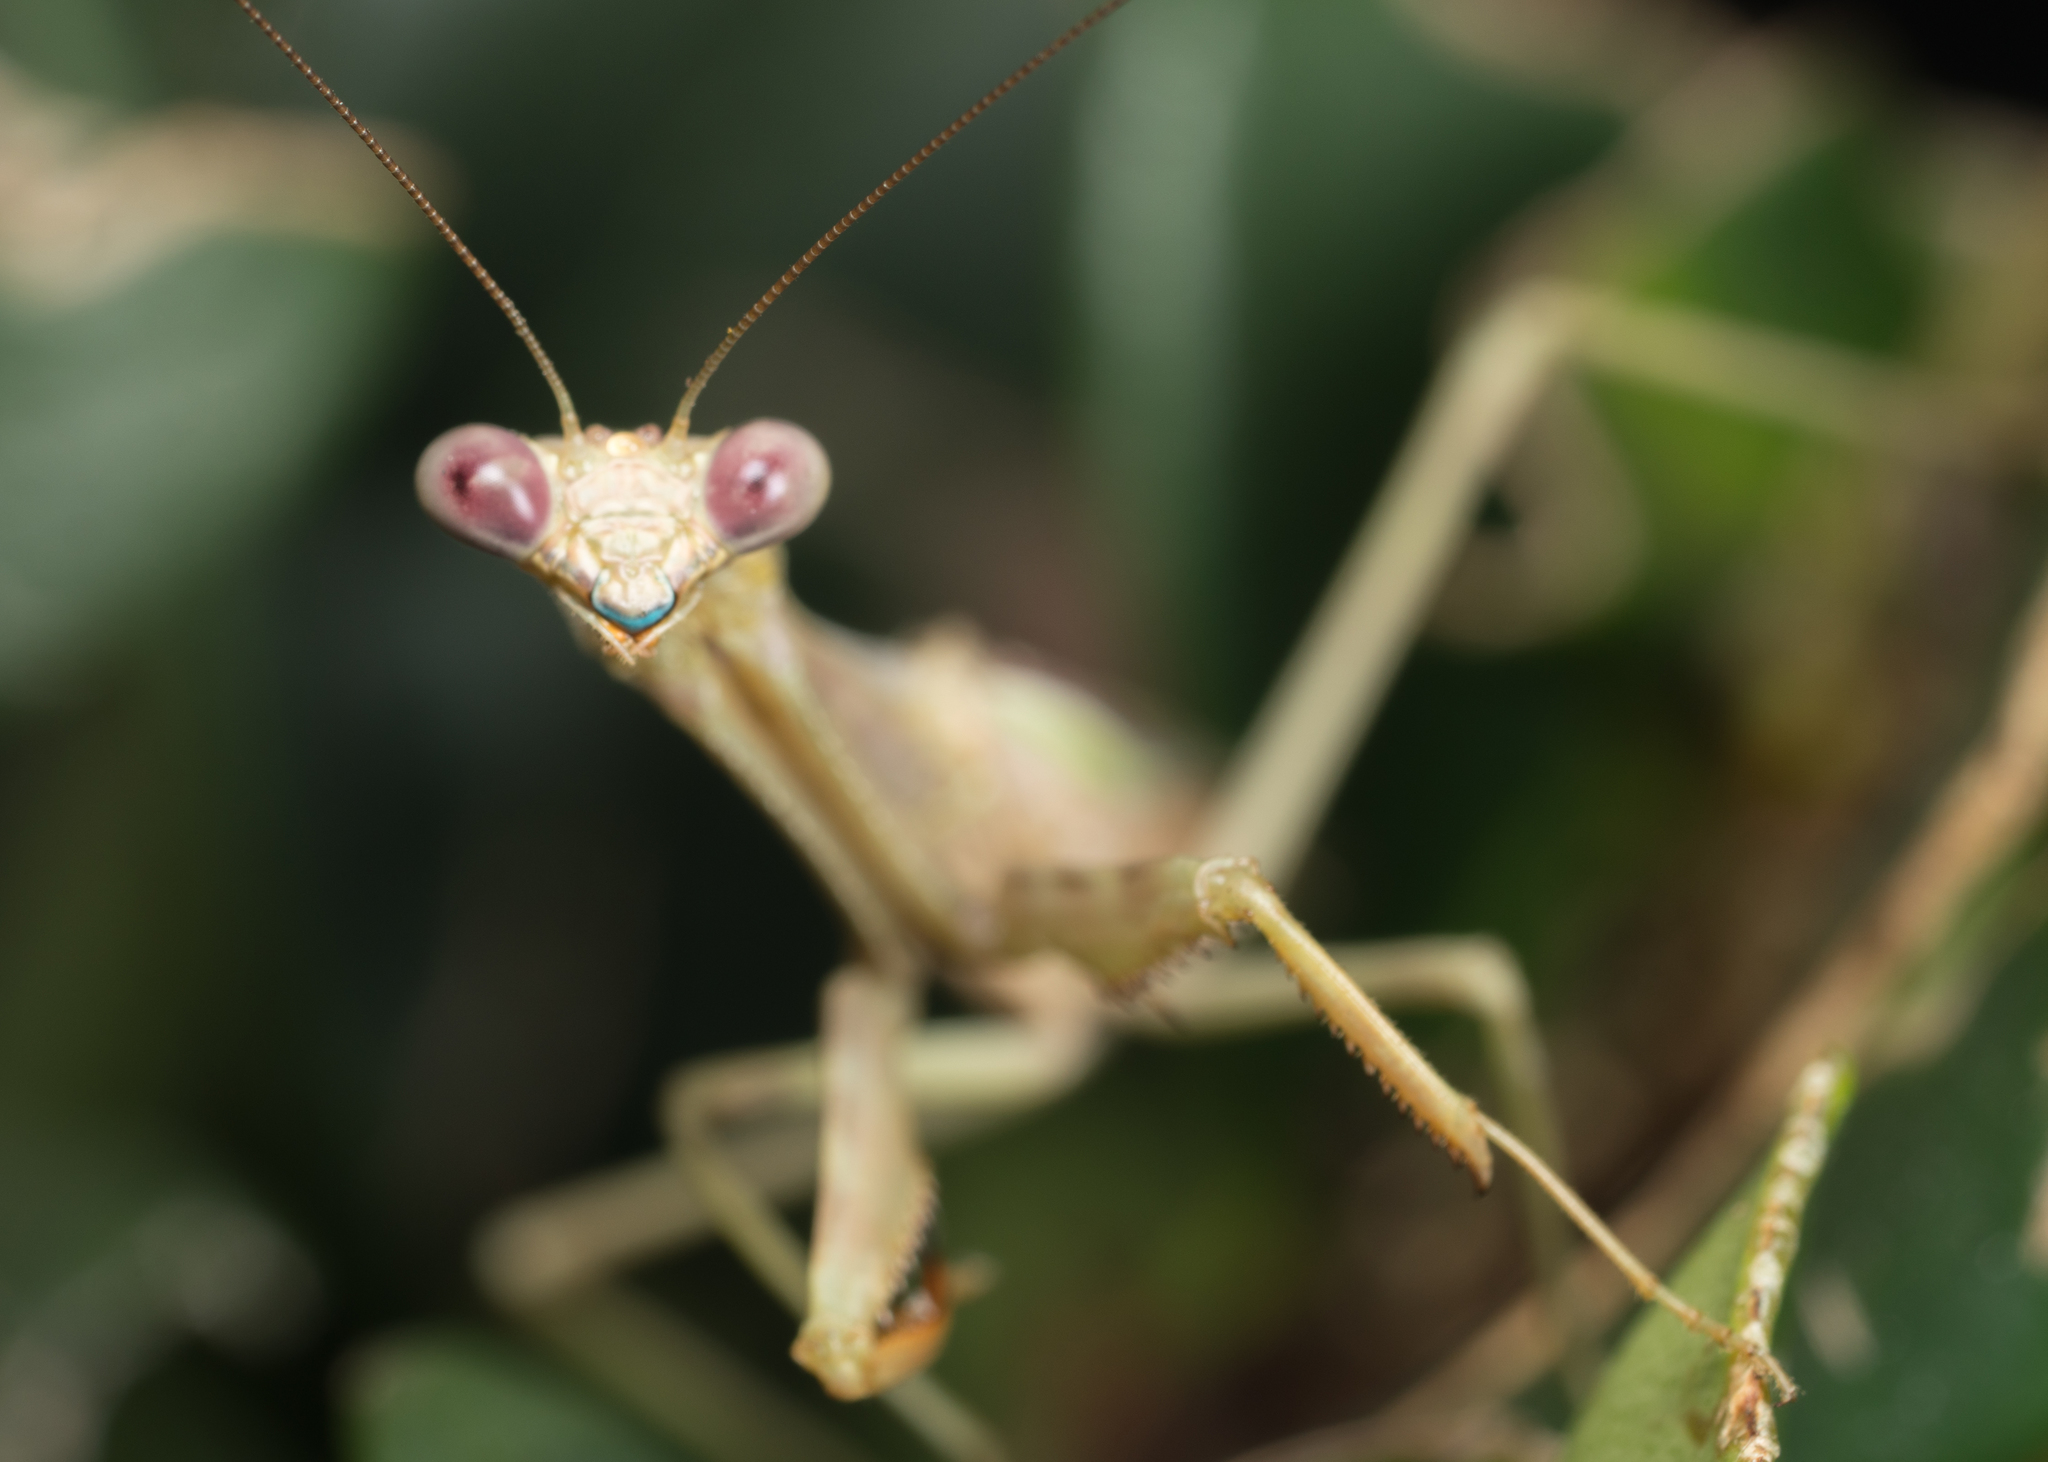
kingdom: Animalia
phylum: Arthropoda
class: Insecta
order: Mantodea
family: Mantidae
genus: Stagmomantis
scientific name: Stagmomantis limbata
